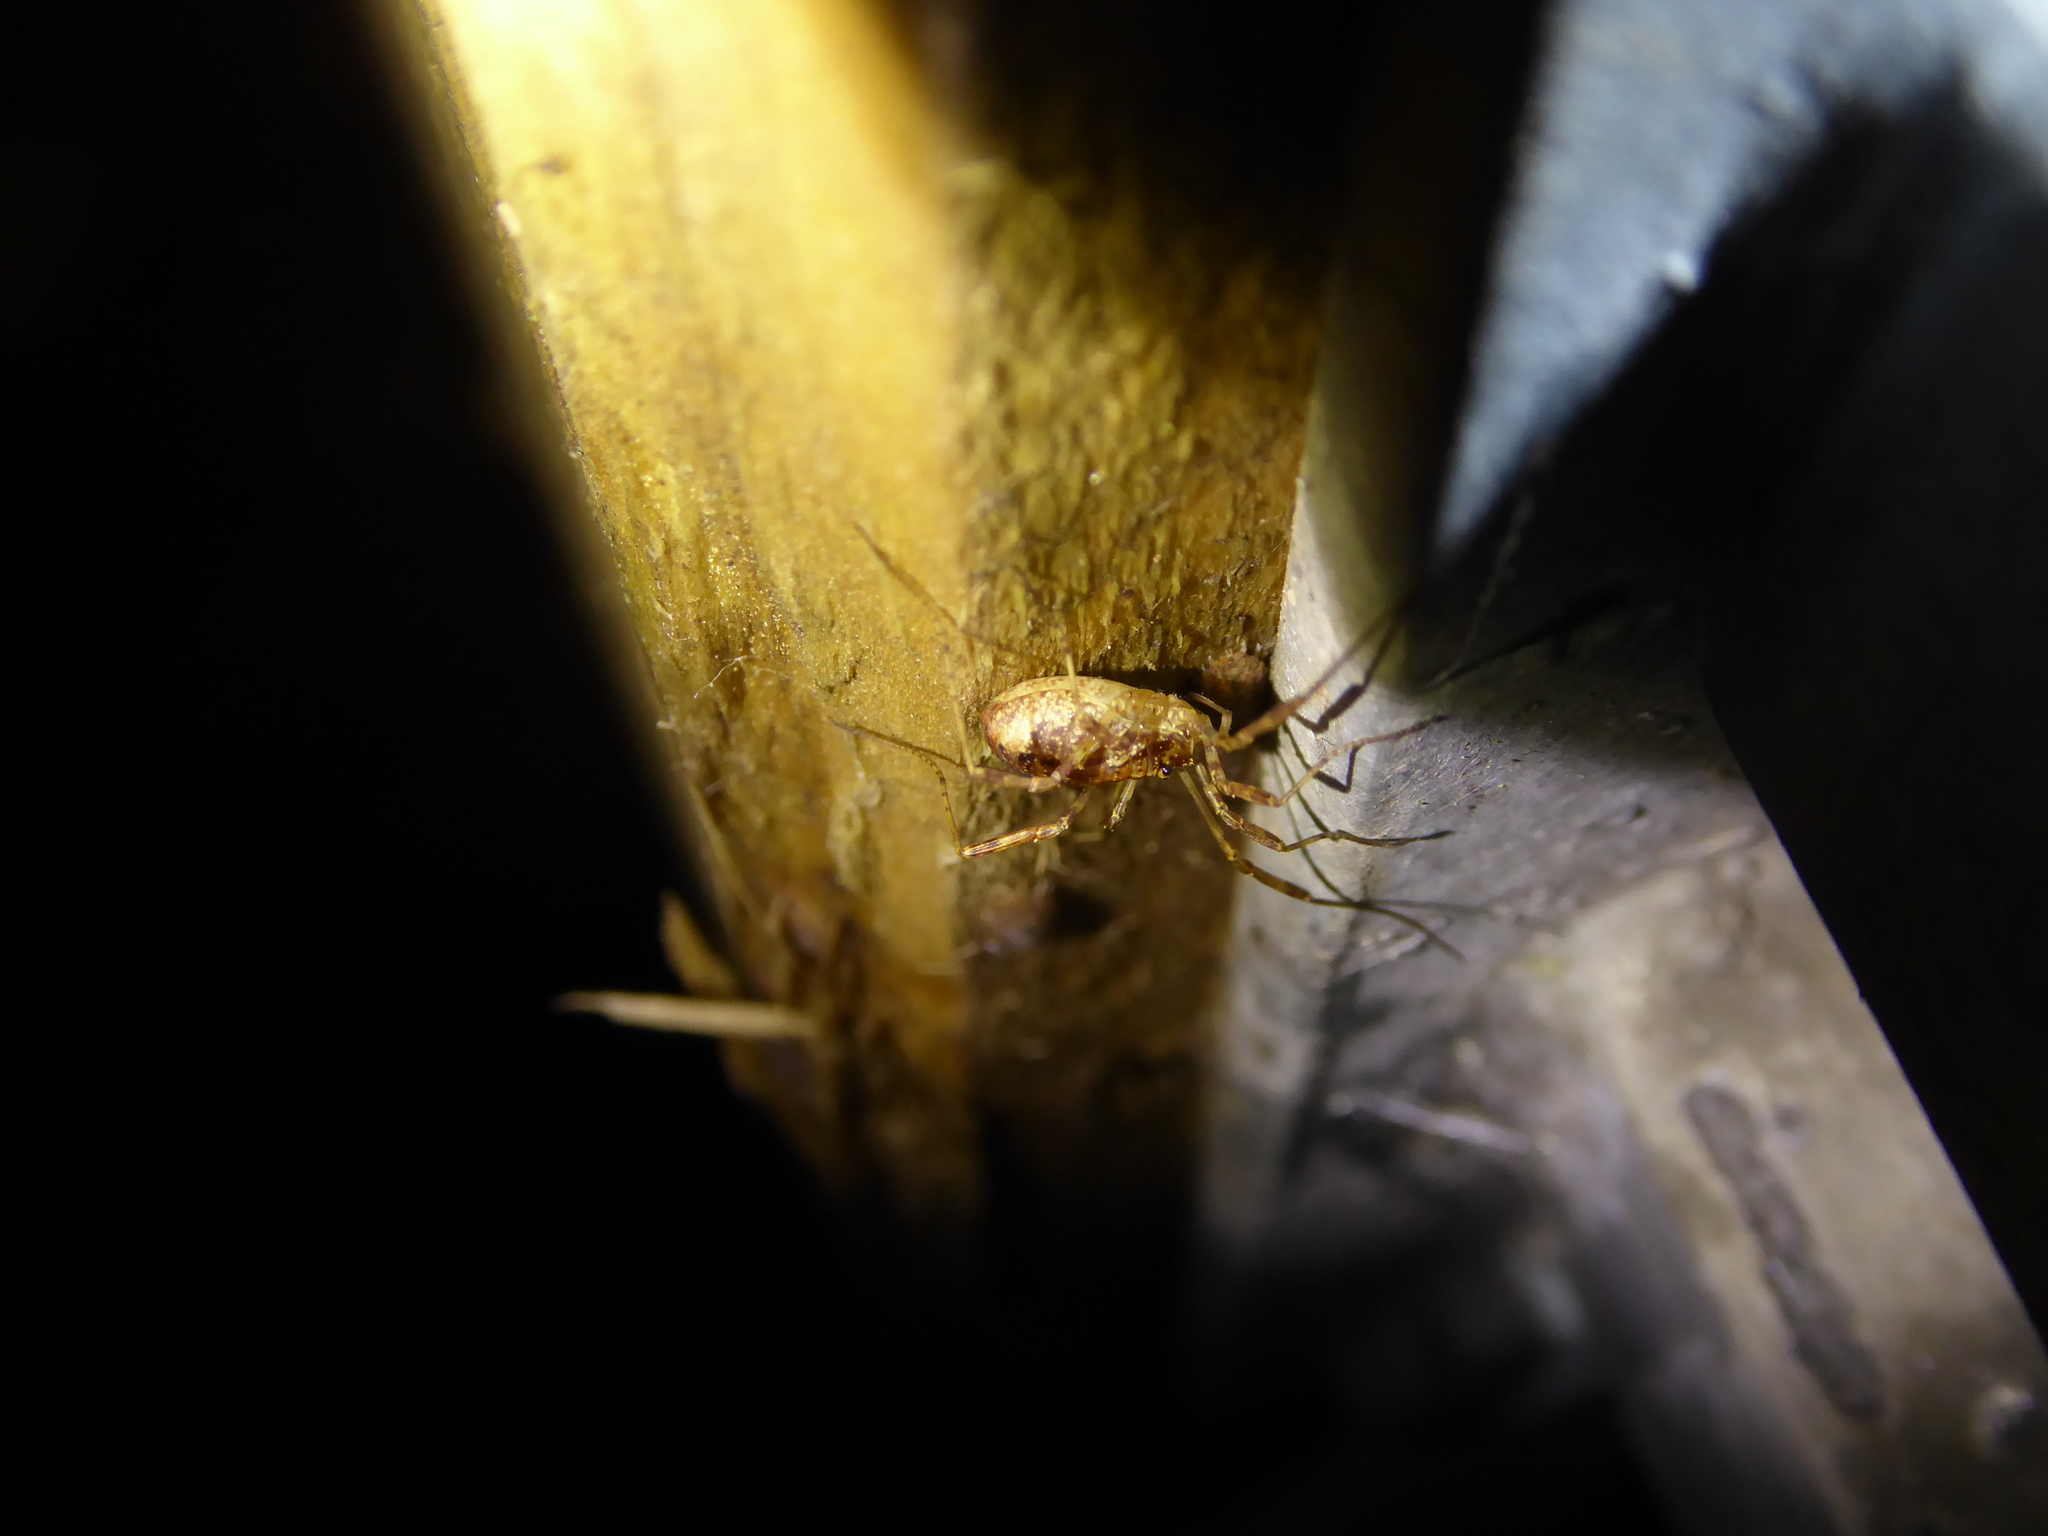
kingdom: Animalia
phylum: Arthropoda
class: Arachnida
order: Opiliones
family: Phalangiidae
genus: Paroligolophus
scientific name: Paroligolophus agrestis
